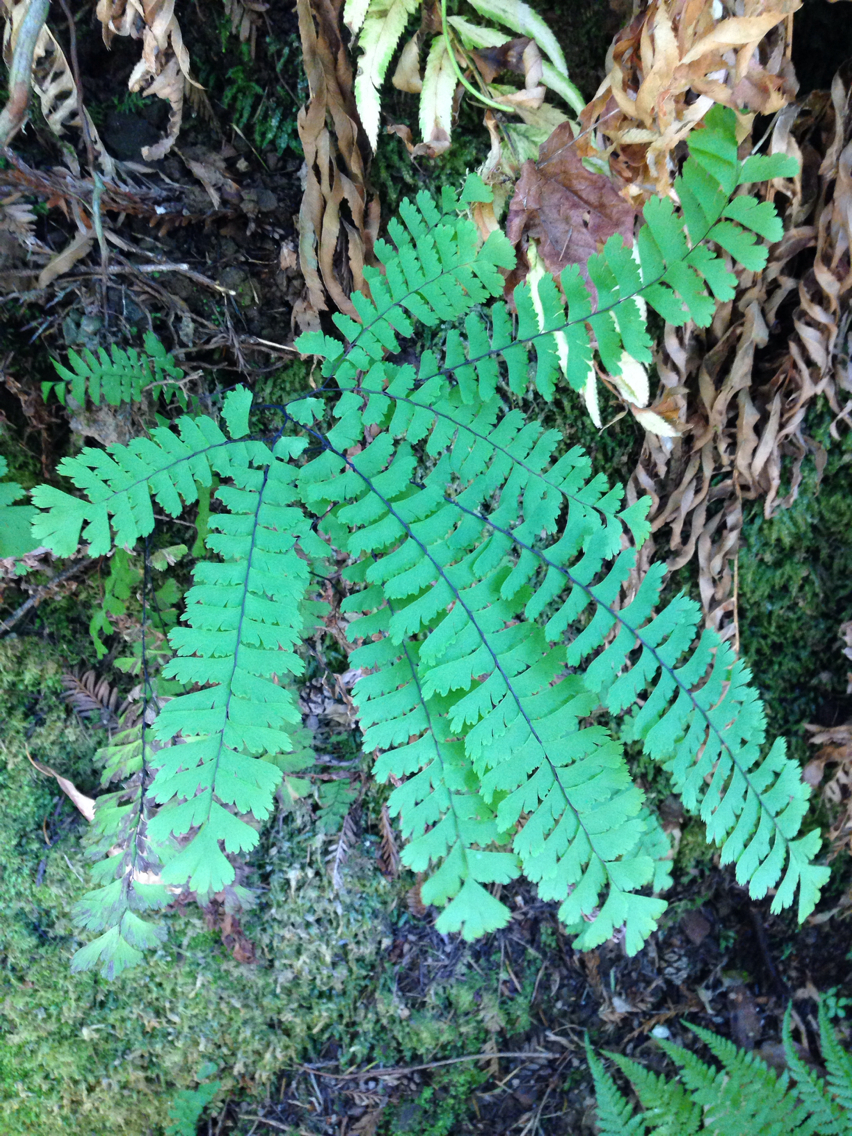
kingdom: Plantae
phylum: Tracheophyta
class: Polypodiopsida
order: Polypodiales
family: Pteridaceae
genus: Adiantum
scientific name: Adiantum aleuticum
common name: Aleutian maidenhair fern
